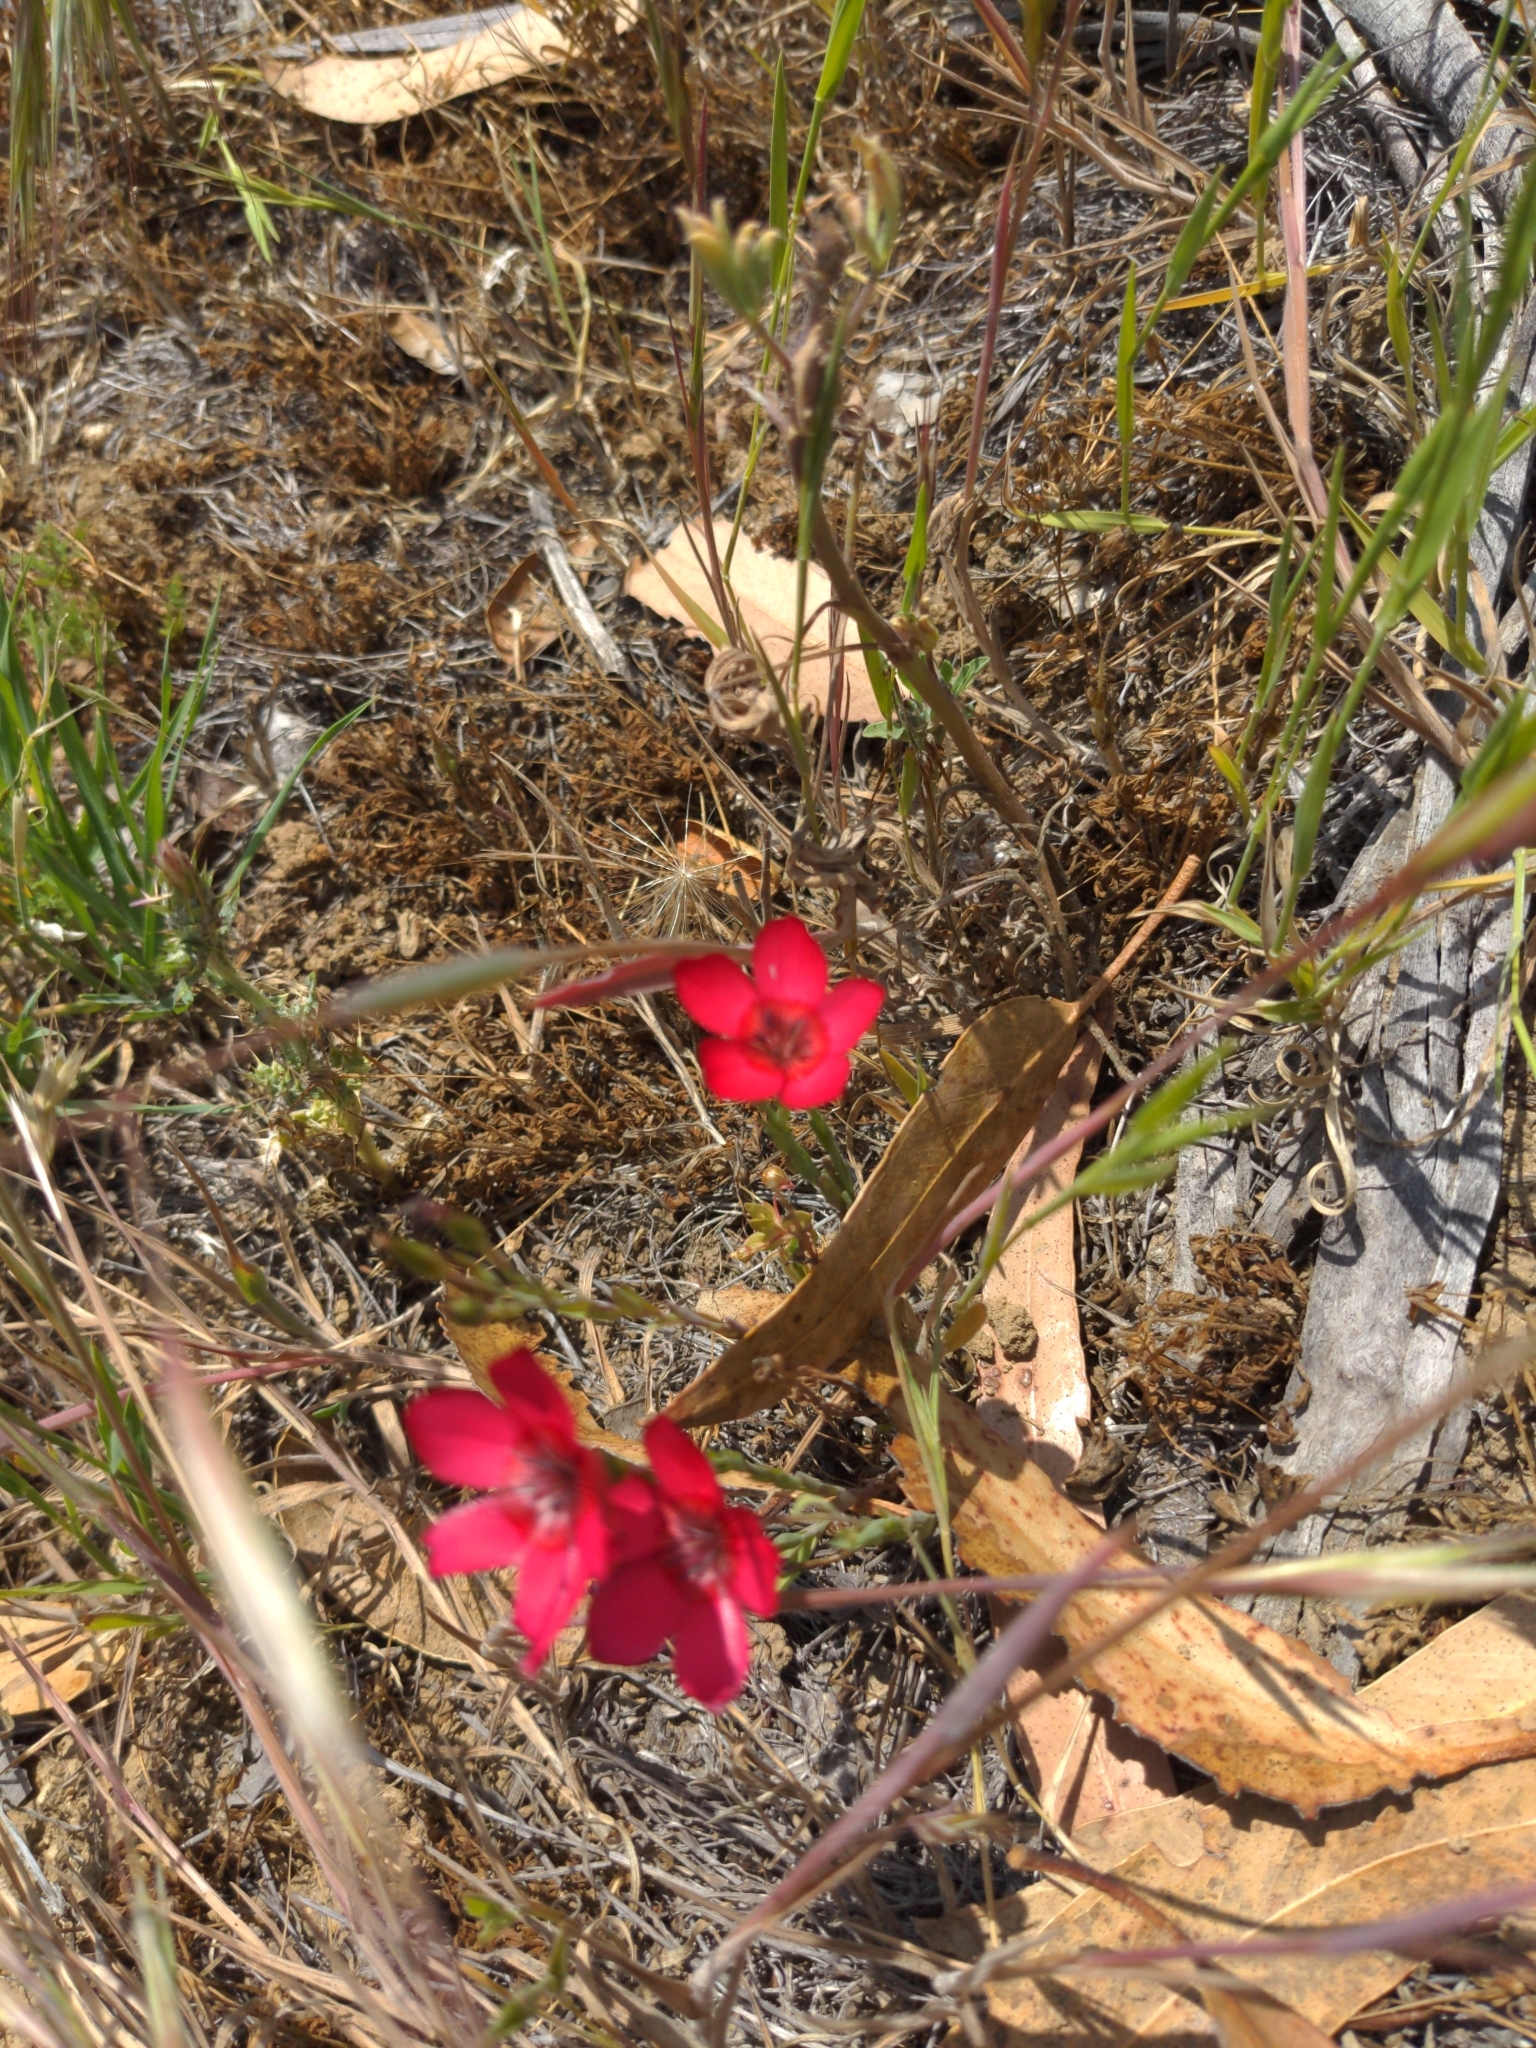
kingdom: Plantae
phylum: Tracheophyta
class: Magnoliopsida
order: Malpighiales
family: Linaceae
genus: Linum
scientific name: Linum grandiflorum
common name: Crimson flax
